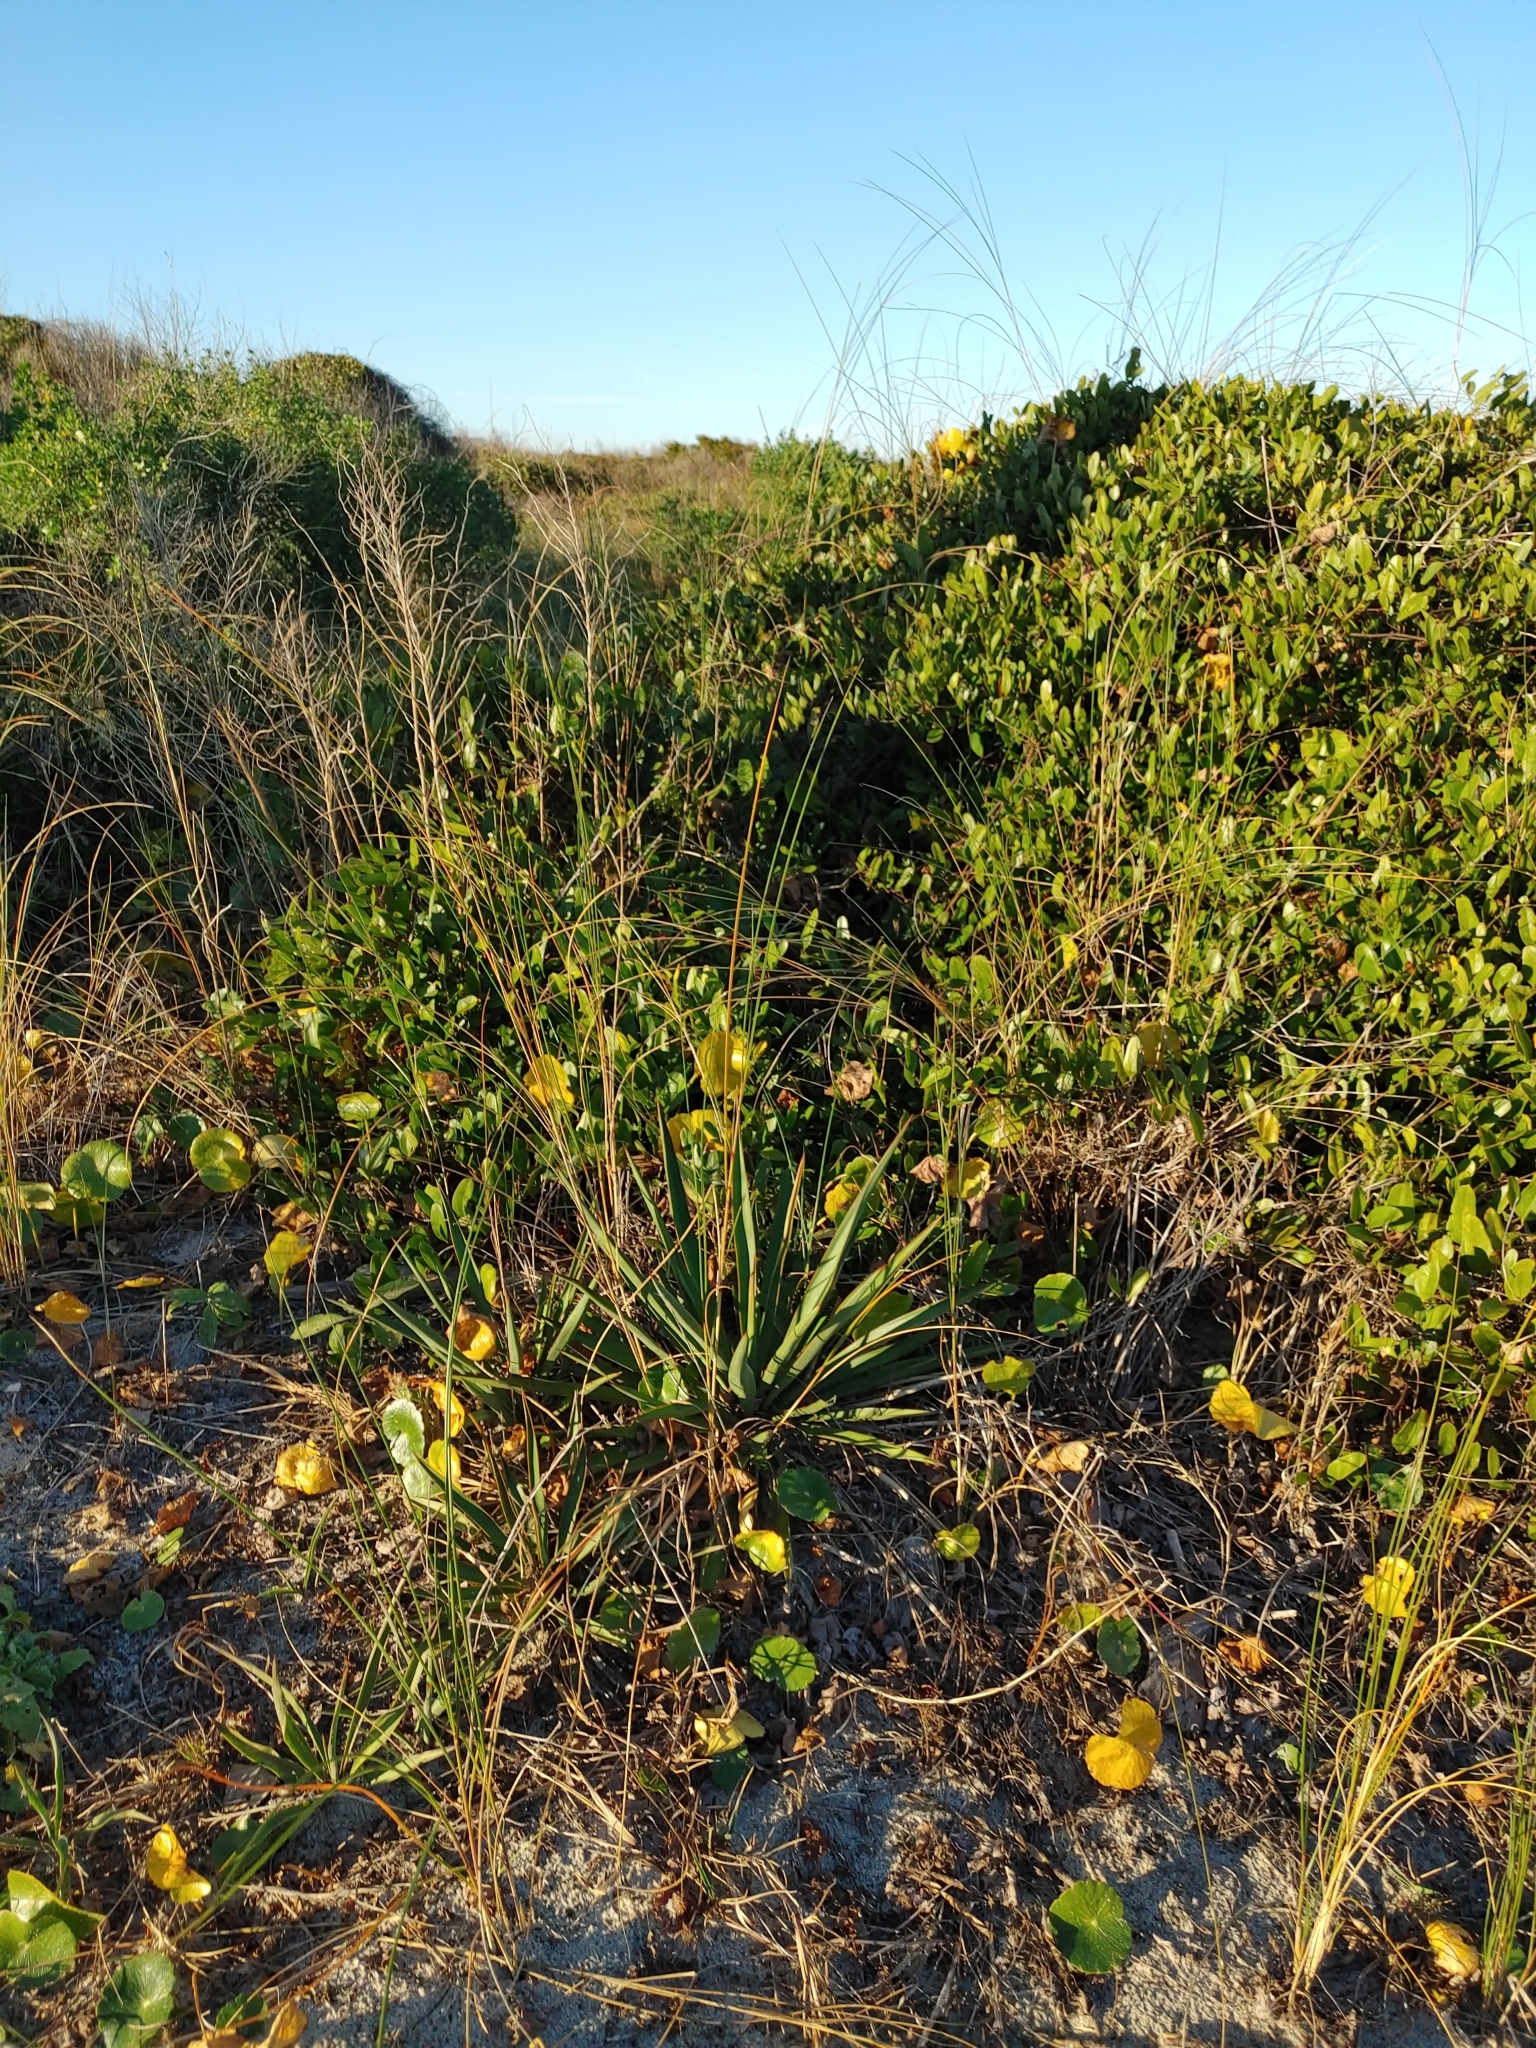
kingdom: Plantae
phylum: Tracheophyta
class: Liliopsida
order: Asparagales
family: Asparagaceae
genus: Yucca
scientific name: Yucca gloriosa
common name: Spanish-dagger
